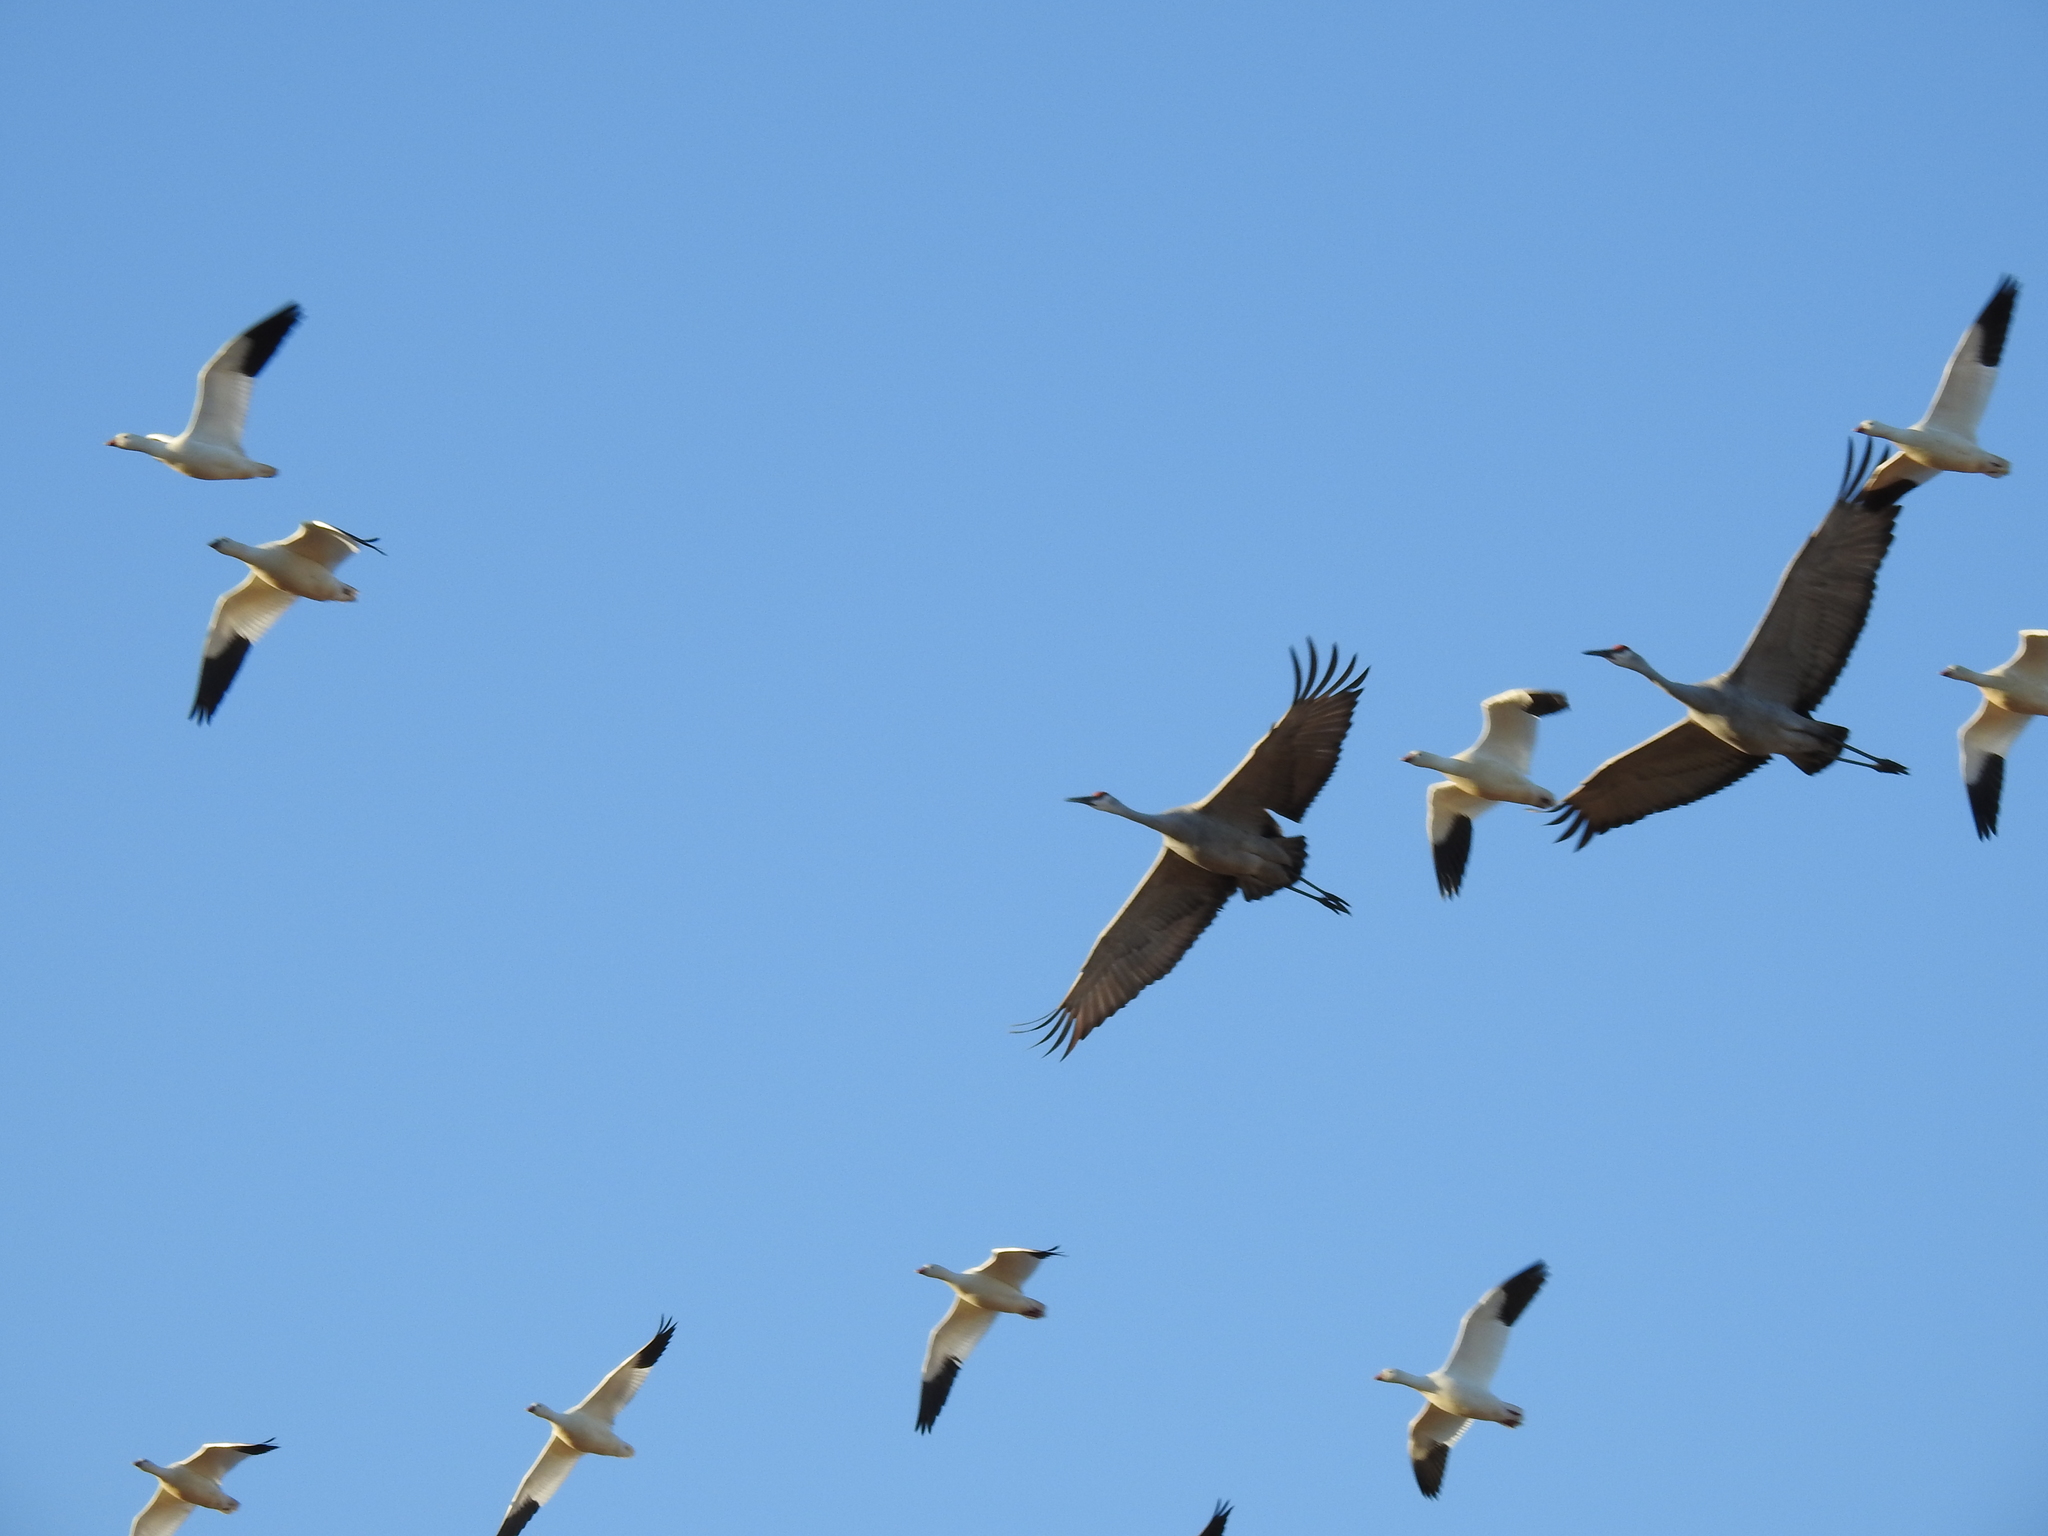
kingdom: Animalia
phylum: Chordata
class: Aves
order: Anseriformes
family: Anatidae
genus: Anser
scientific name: Anser caerulescens
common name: Snow goose
